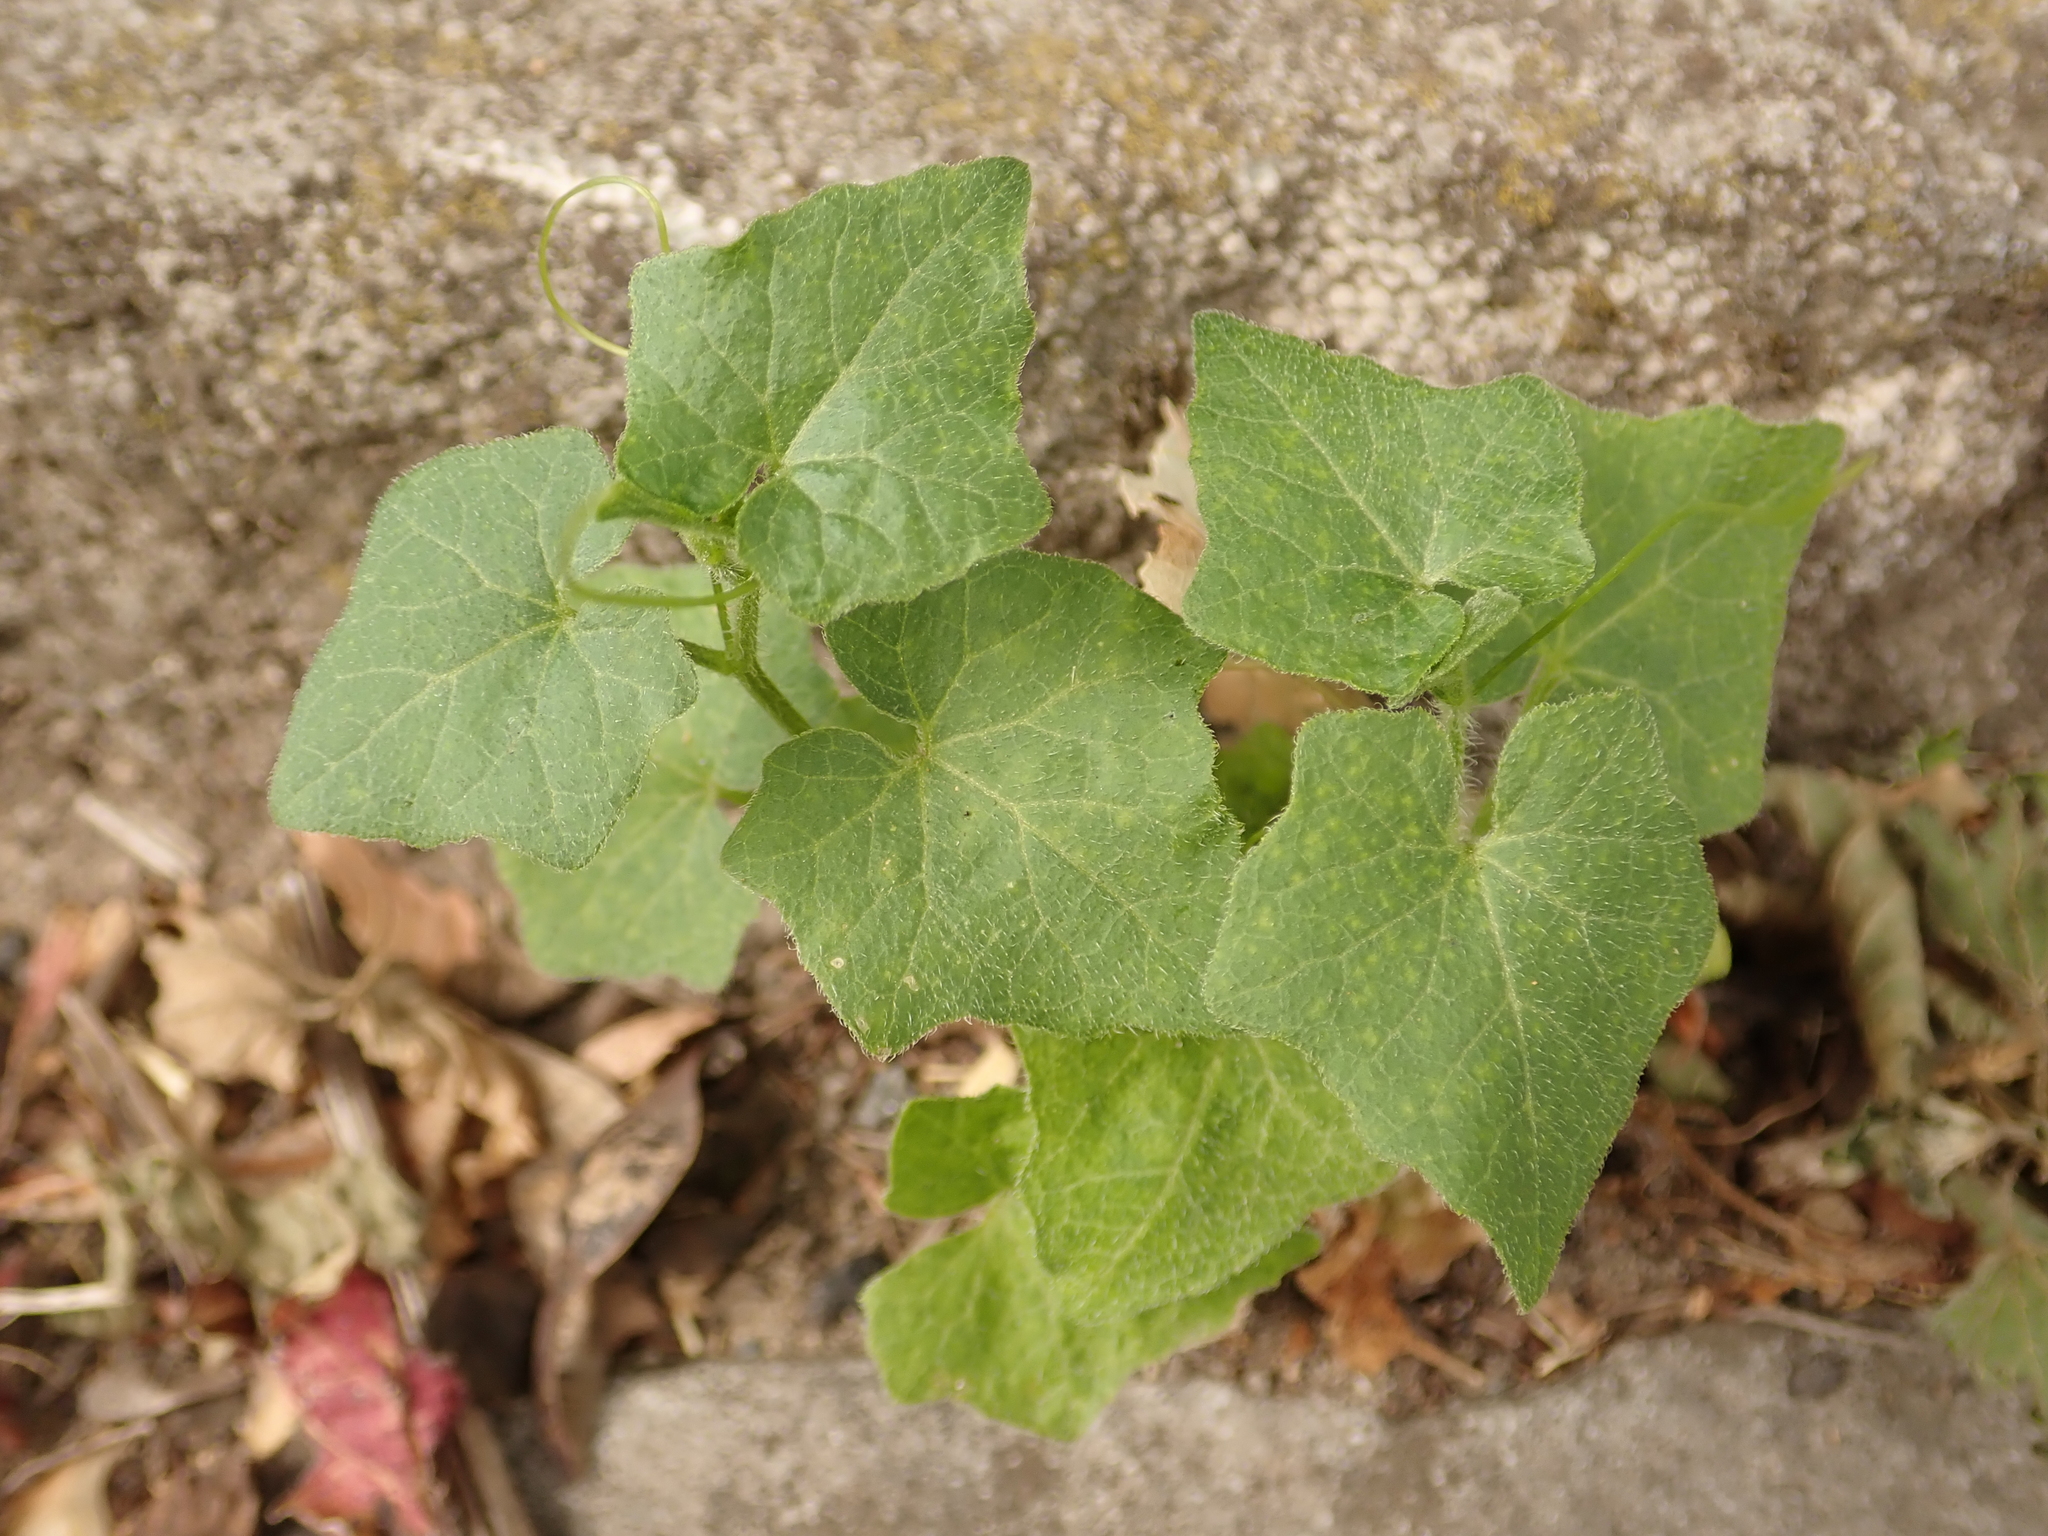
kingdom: Plantae
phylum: Tracheophyta
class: Magnoliopsida
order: Cucurbitales
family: Cucurbitaceae
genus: Bryonia
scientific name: Bryonia cretica
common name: Cretan bryony
